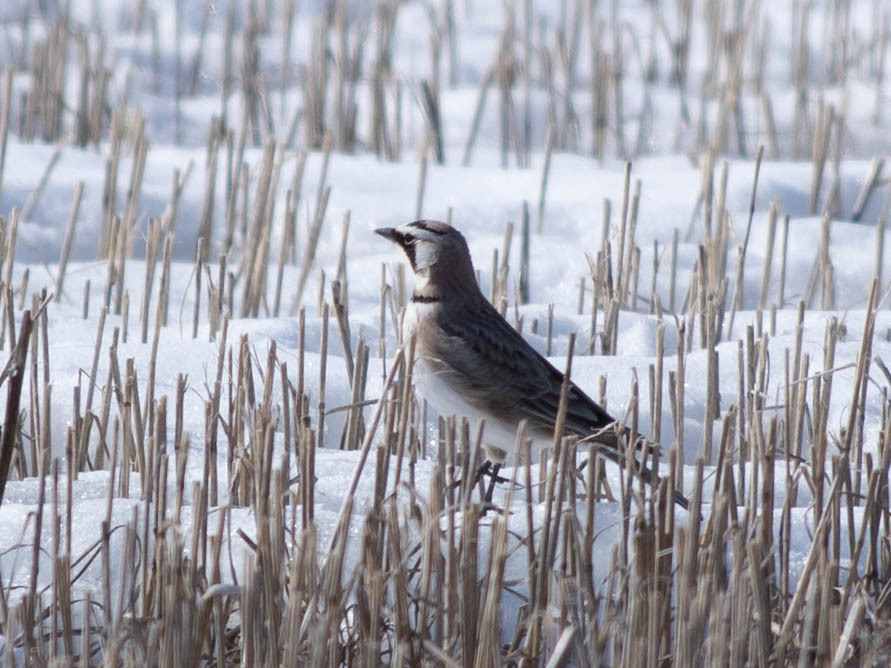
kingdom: Animalia
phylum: Chordata
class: Aves
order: Passeriformes
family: Alaudidae
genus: Eremophila
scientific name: Eremophila alpestris
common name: Horned lark
